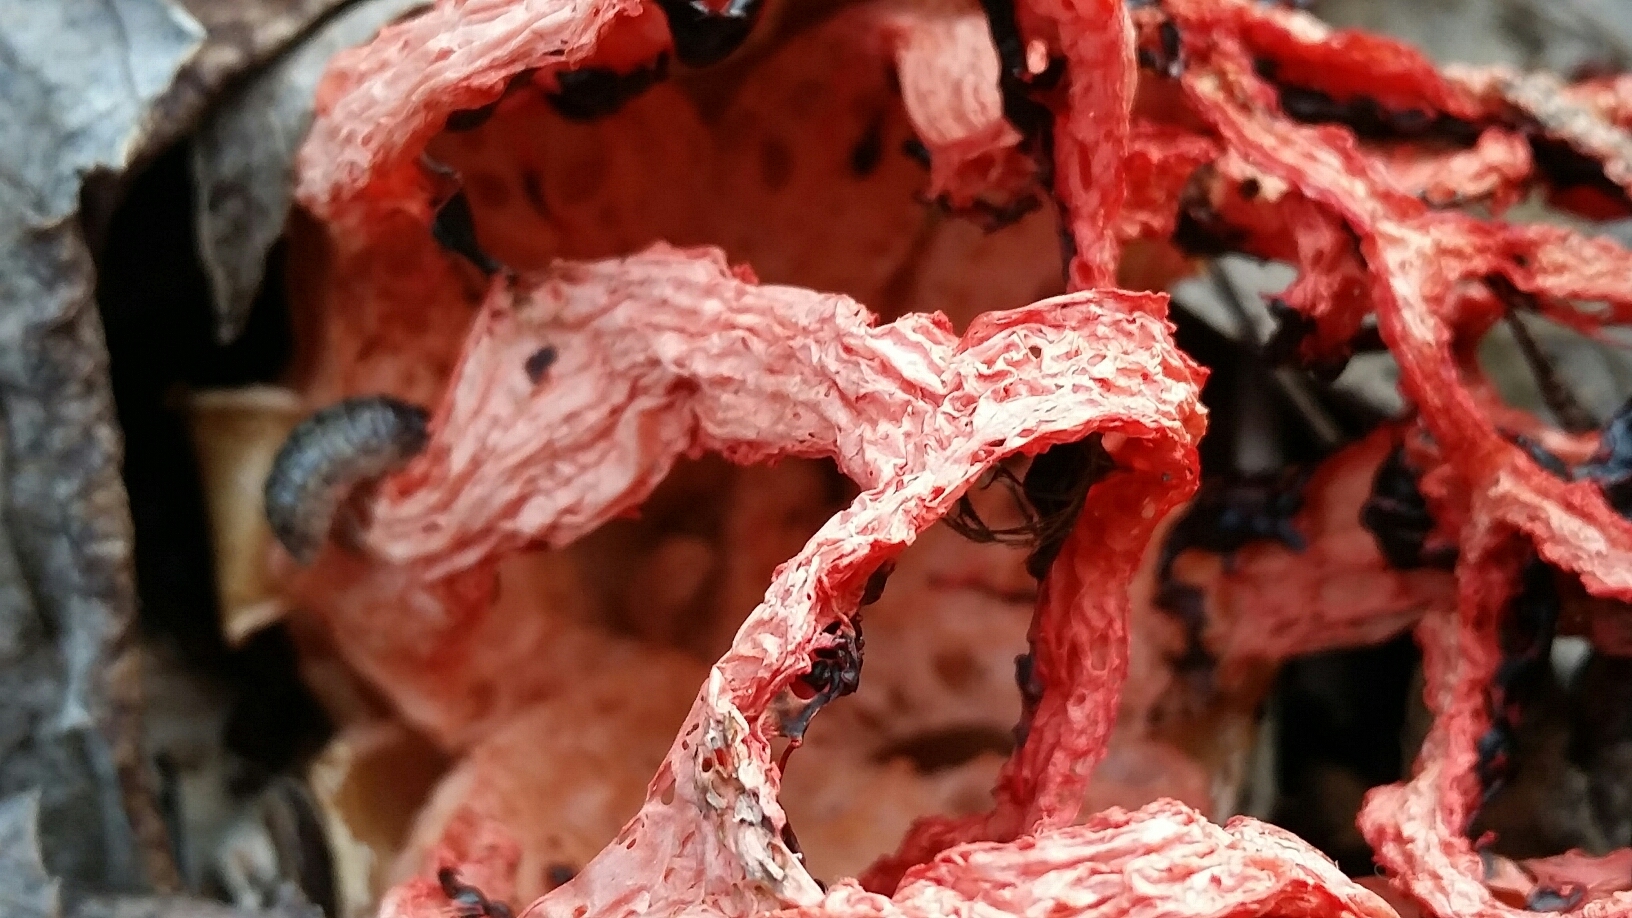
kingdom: Animalia
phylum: Arthropoda
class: Malacostraca
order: Isopoda
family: Armadillidiidae
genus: Armadillidium
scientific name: Armadillidium vulgare
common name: Common pill woodlouse
